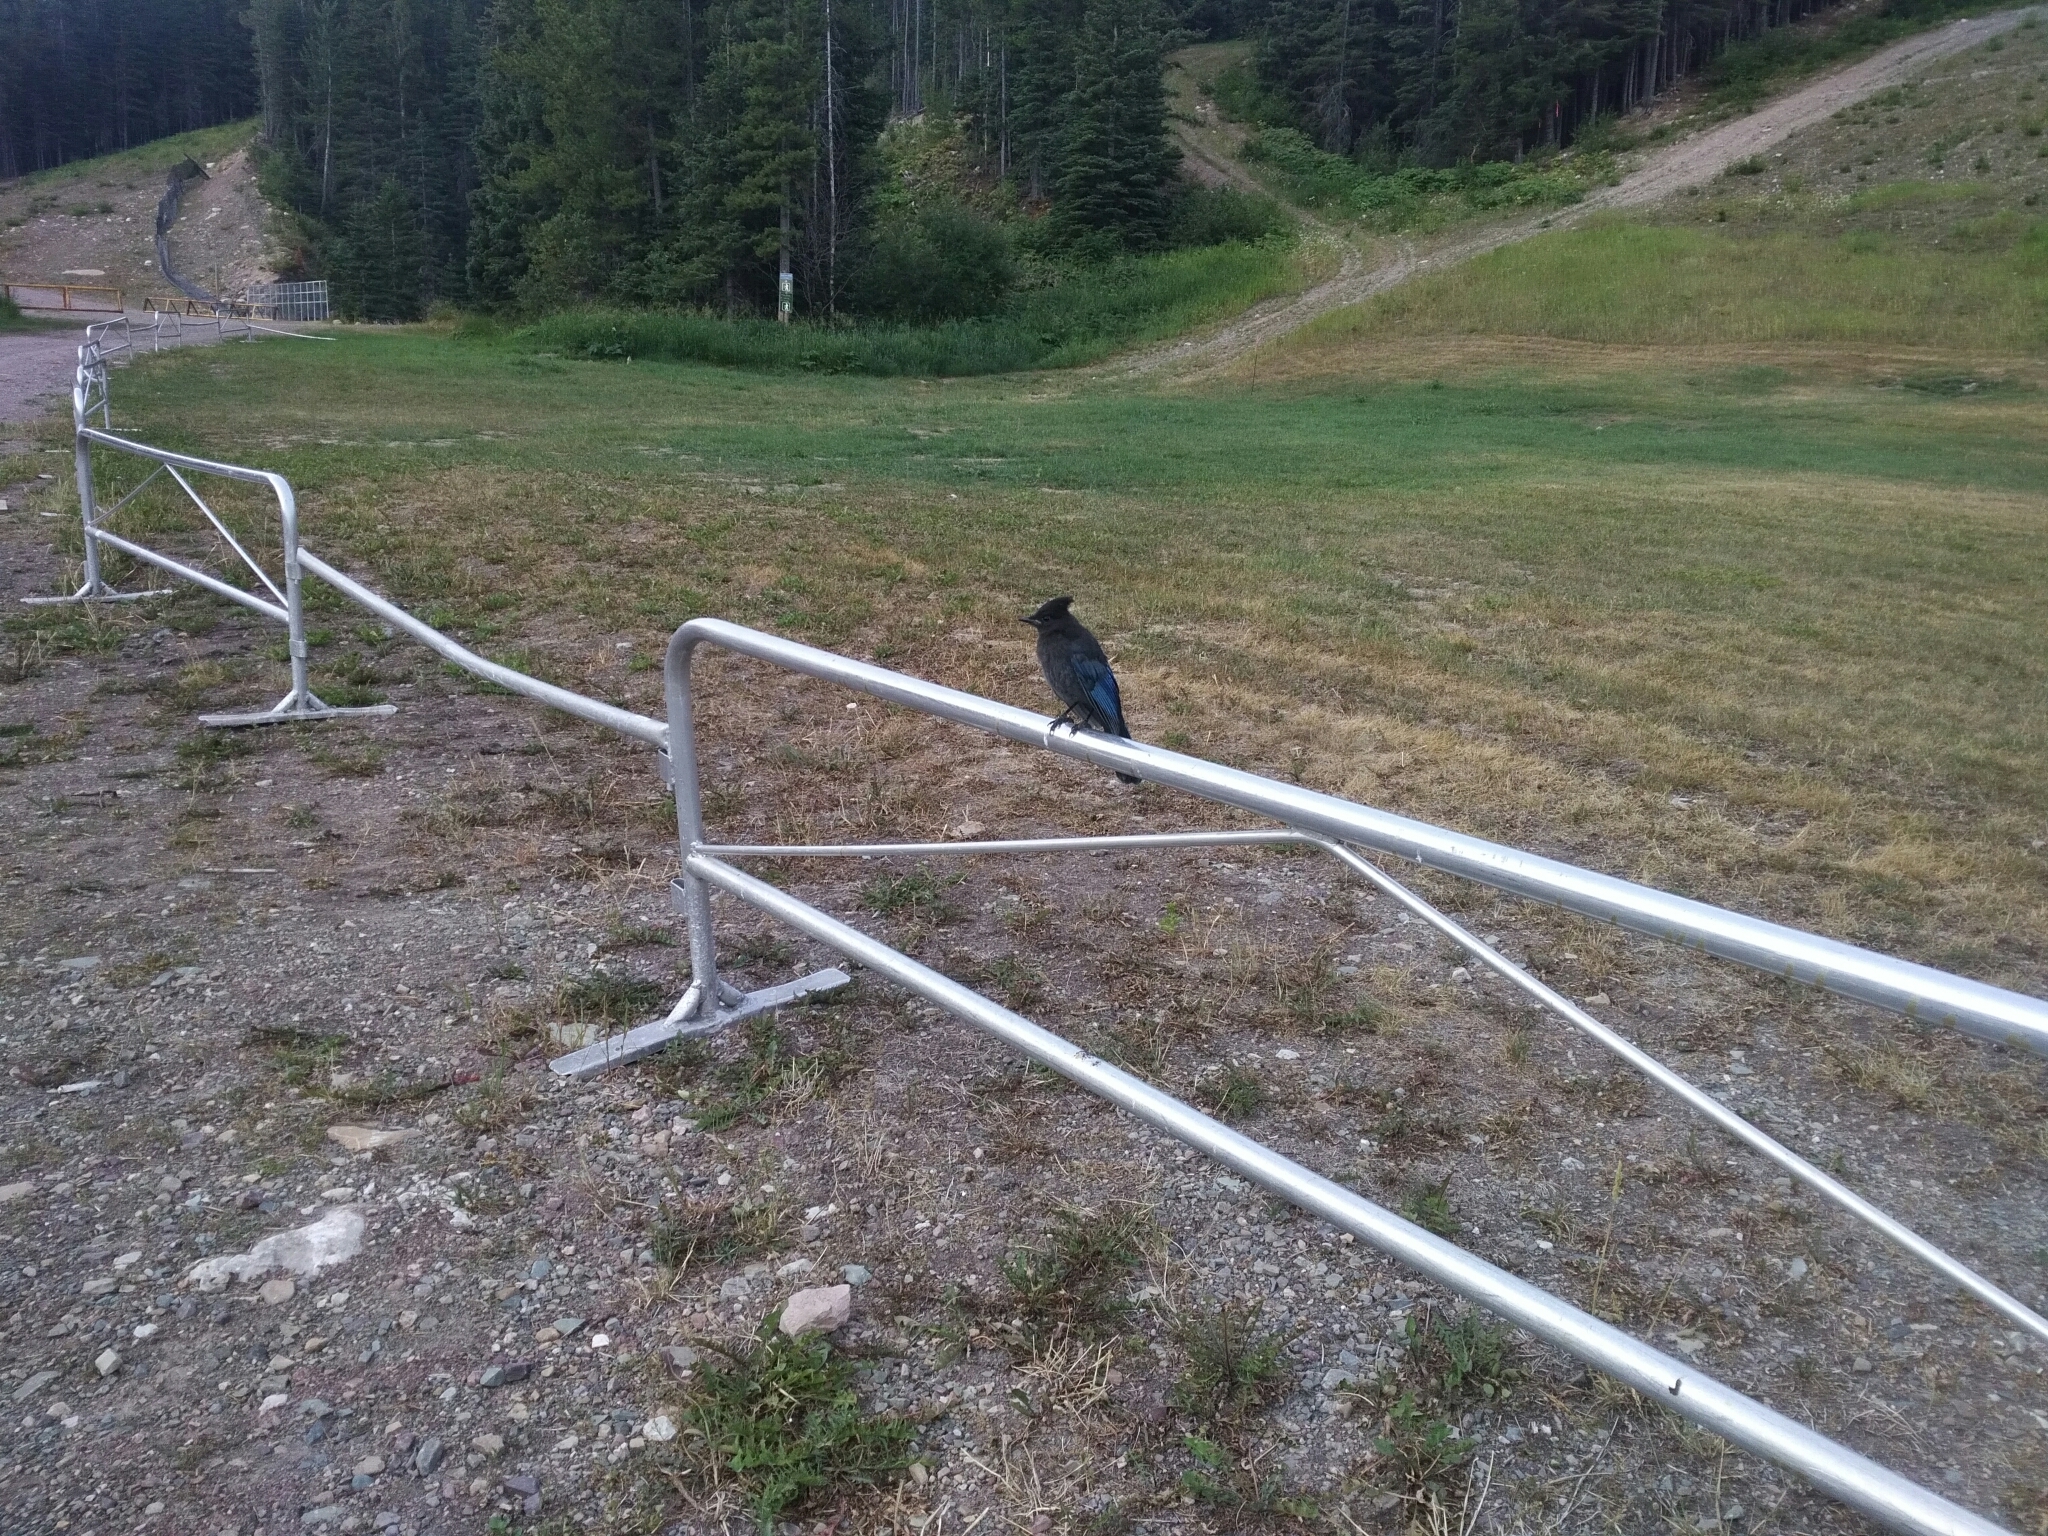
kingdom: Animalia
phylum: Chordata
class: Aves
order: Passeriformes
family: Corvidae
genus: Cyanocitta
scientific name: Cyanocitta stelleri
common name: Steller's jay
